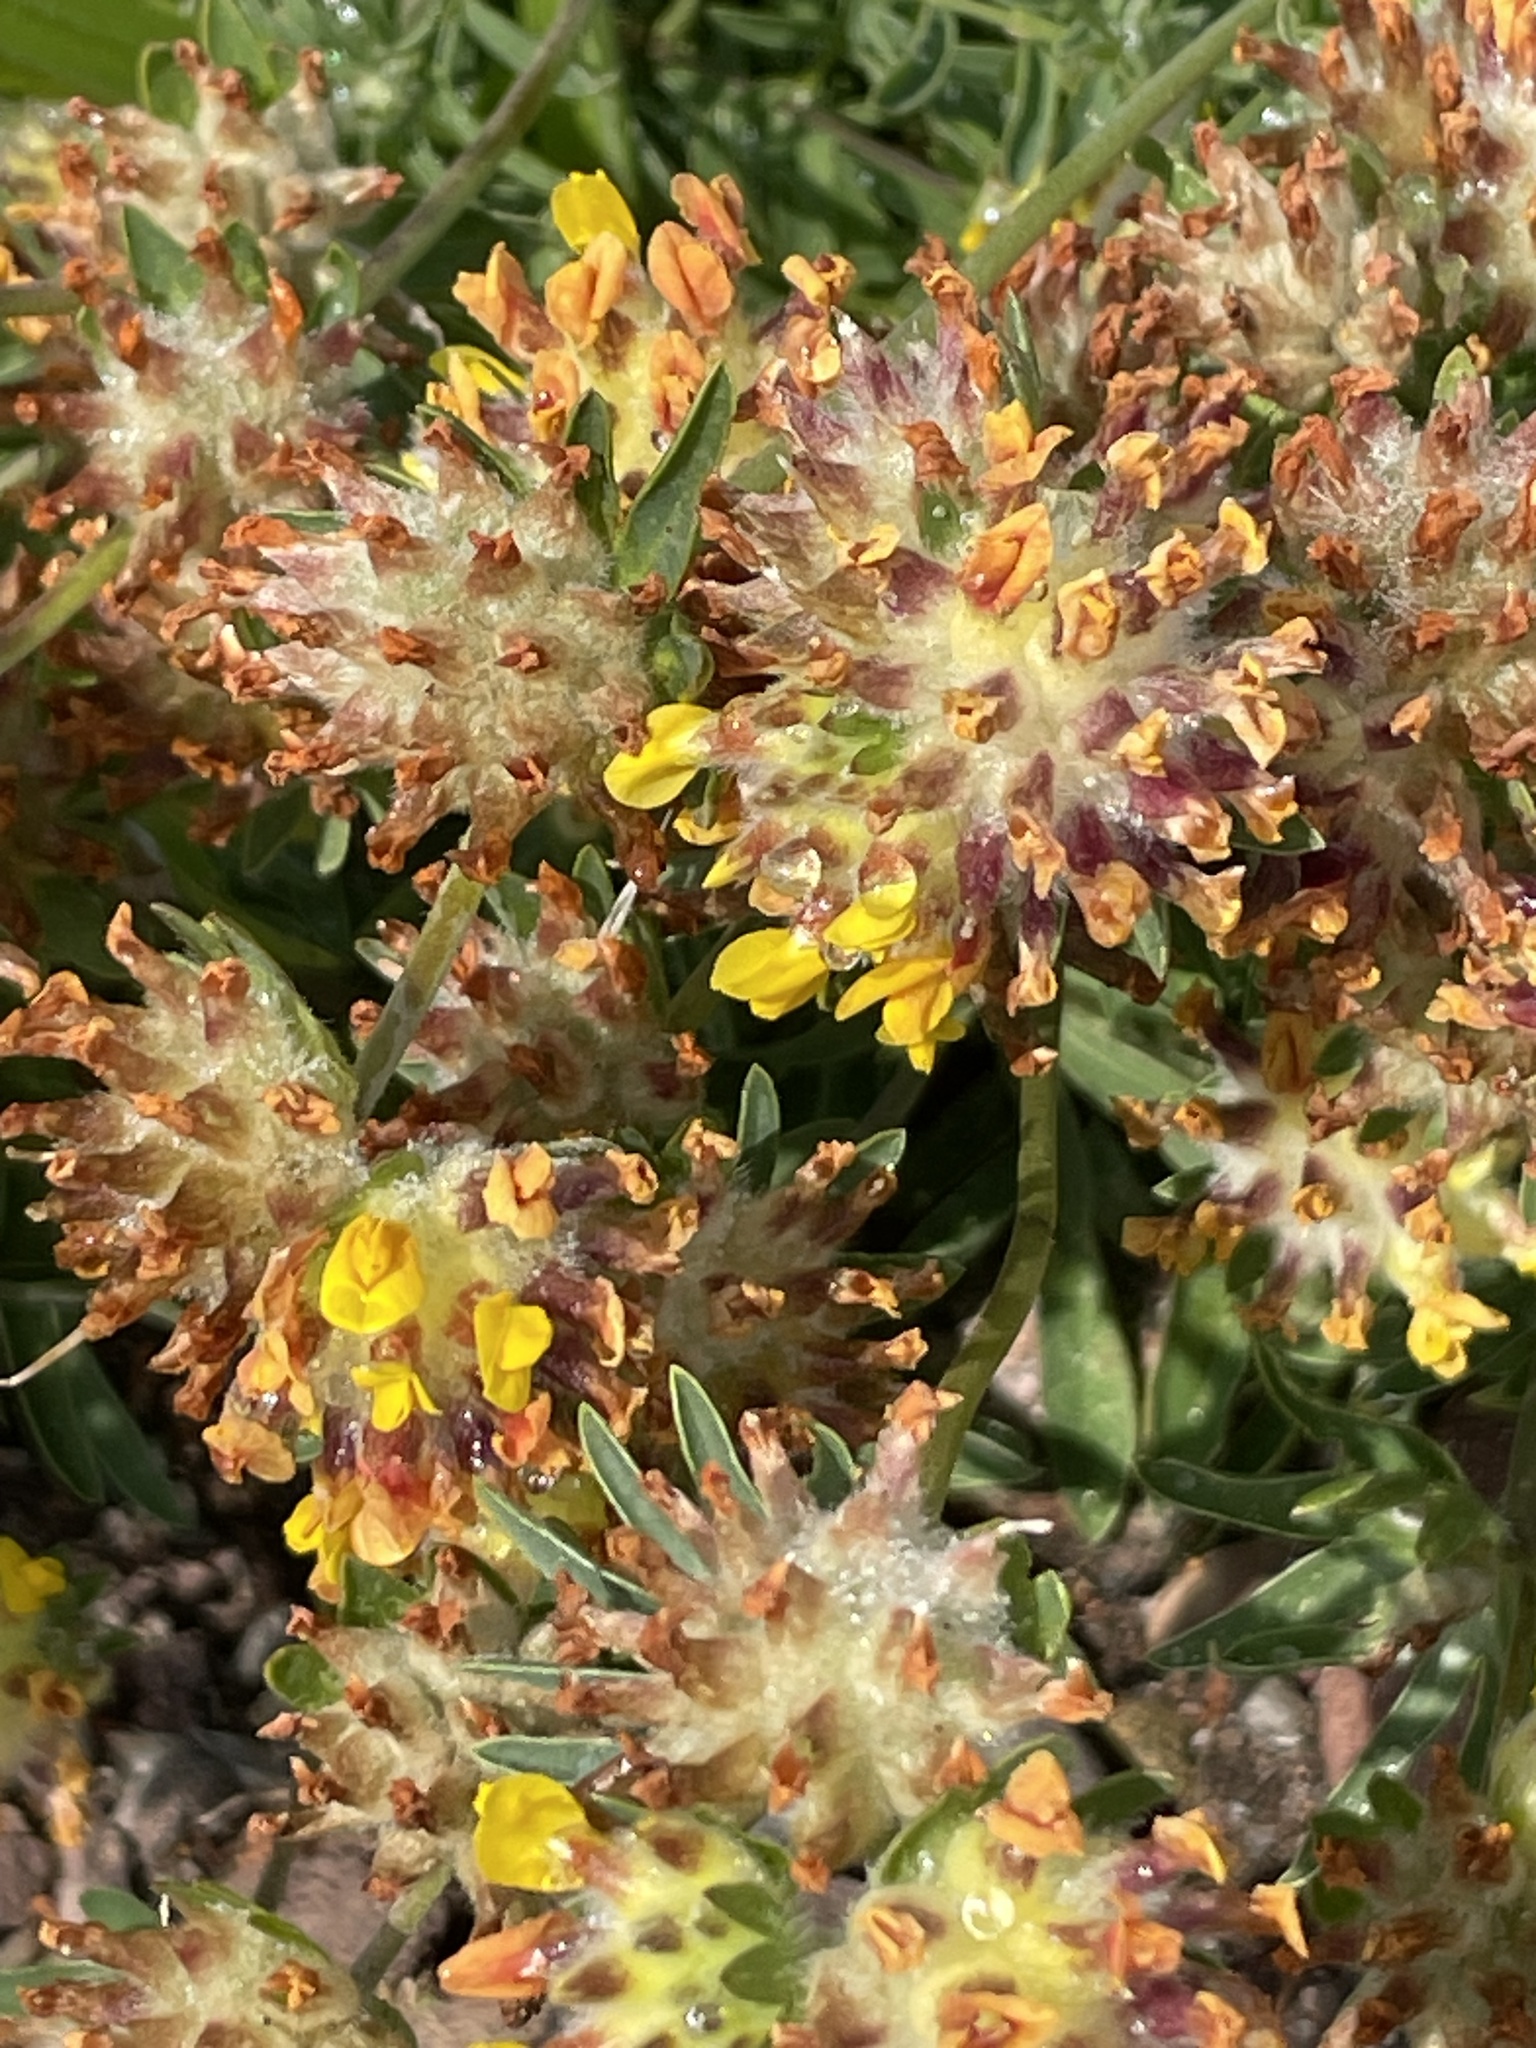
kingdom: Plantae
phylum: Tracheophyta
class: Magnoliopsida
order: Fabales
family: Fabaceae
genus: Anthyllis
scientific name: Anthyllis vulneraria
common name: Kidney vetch
